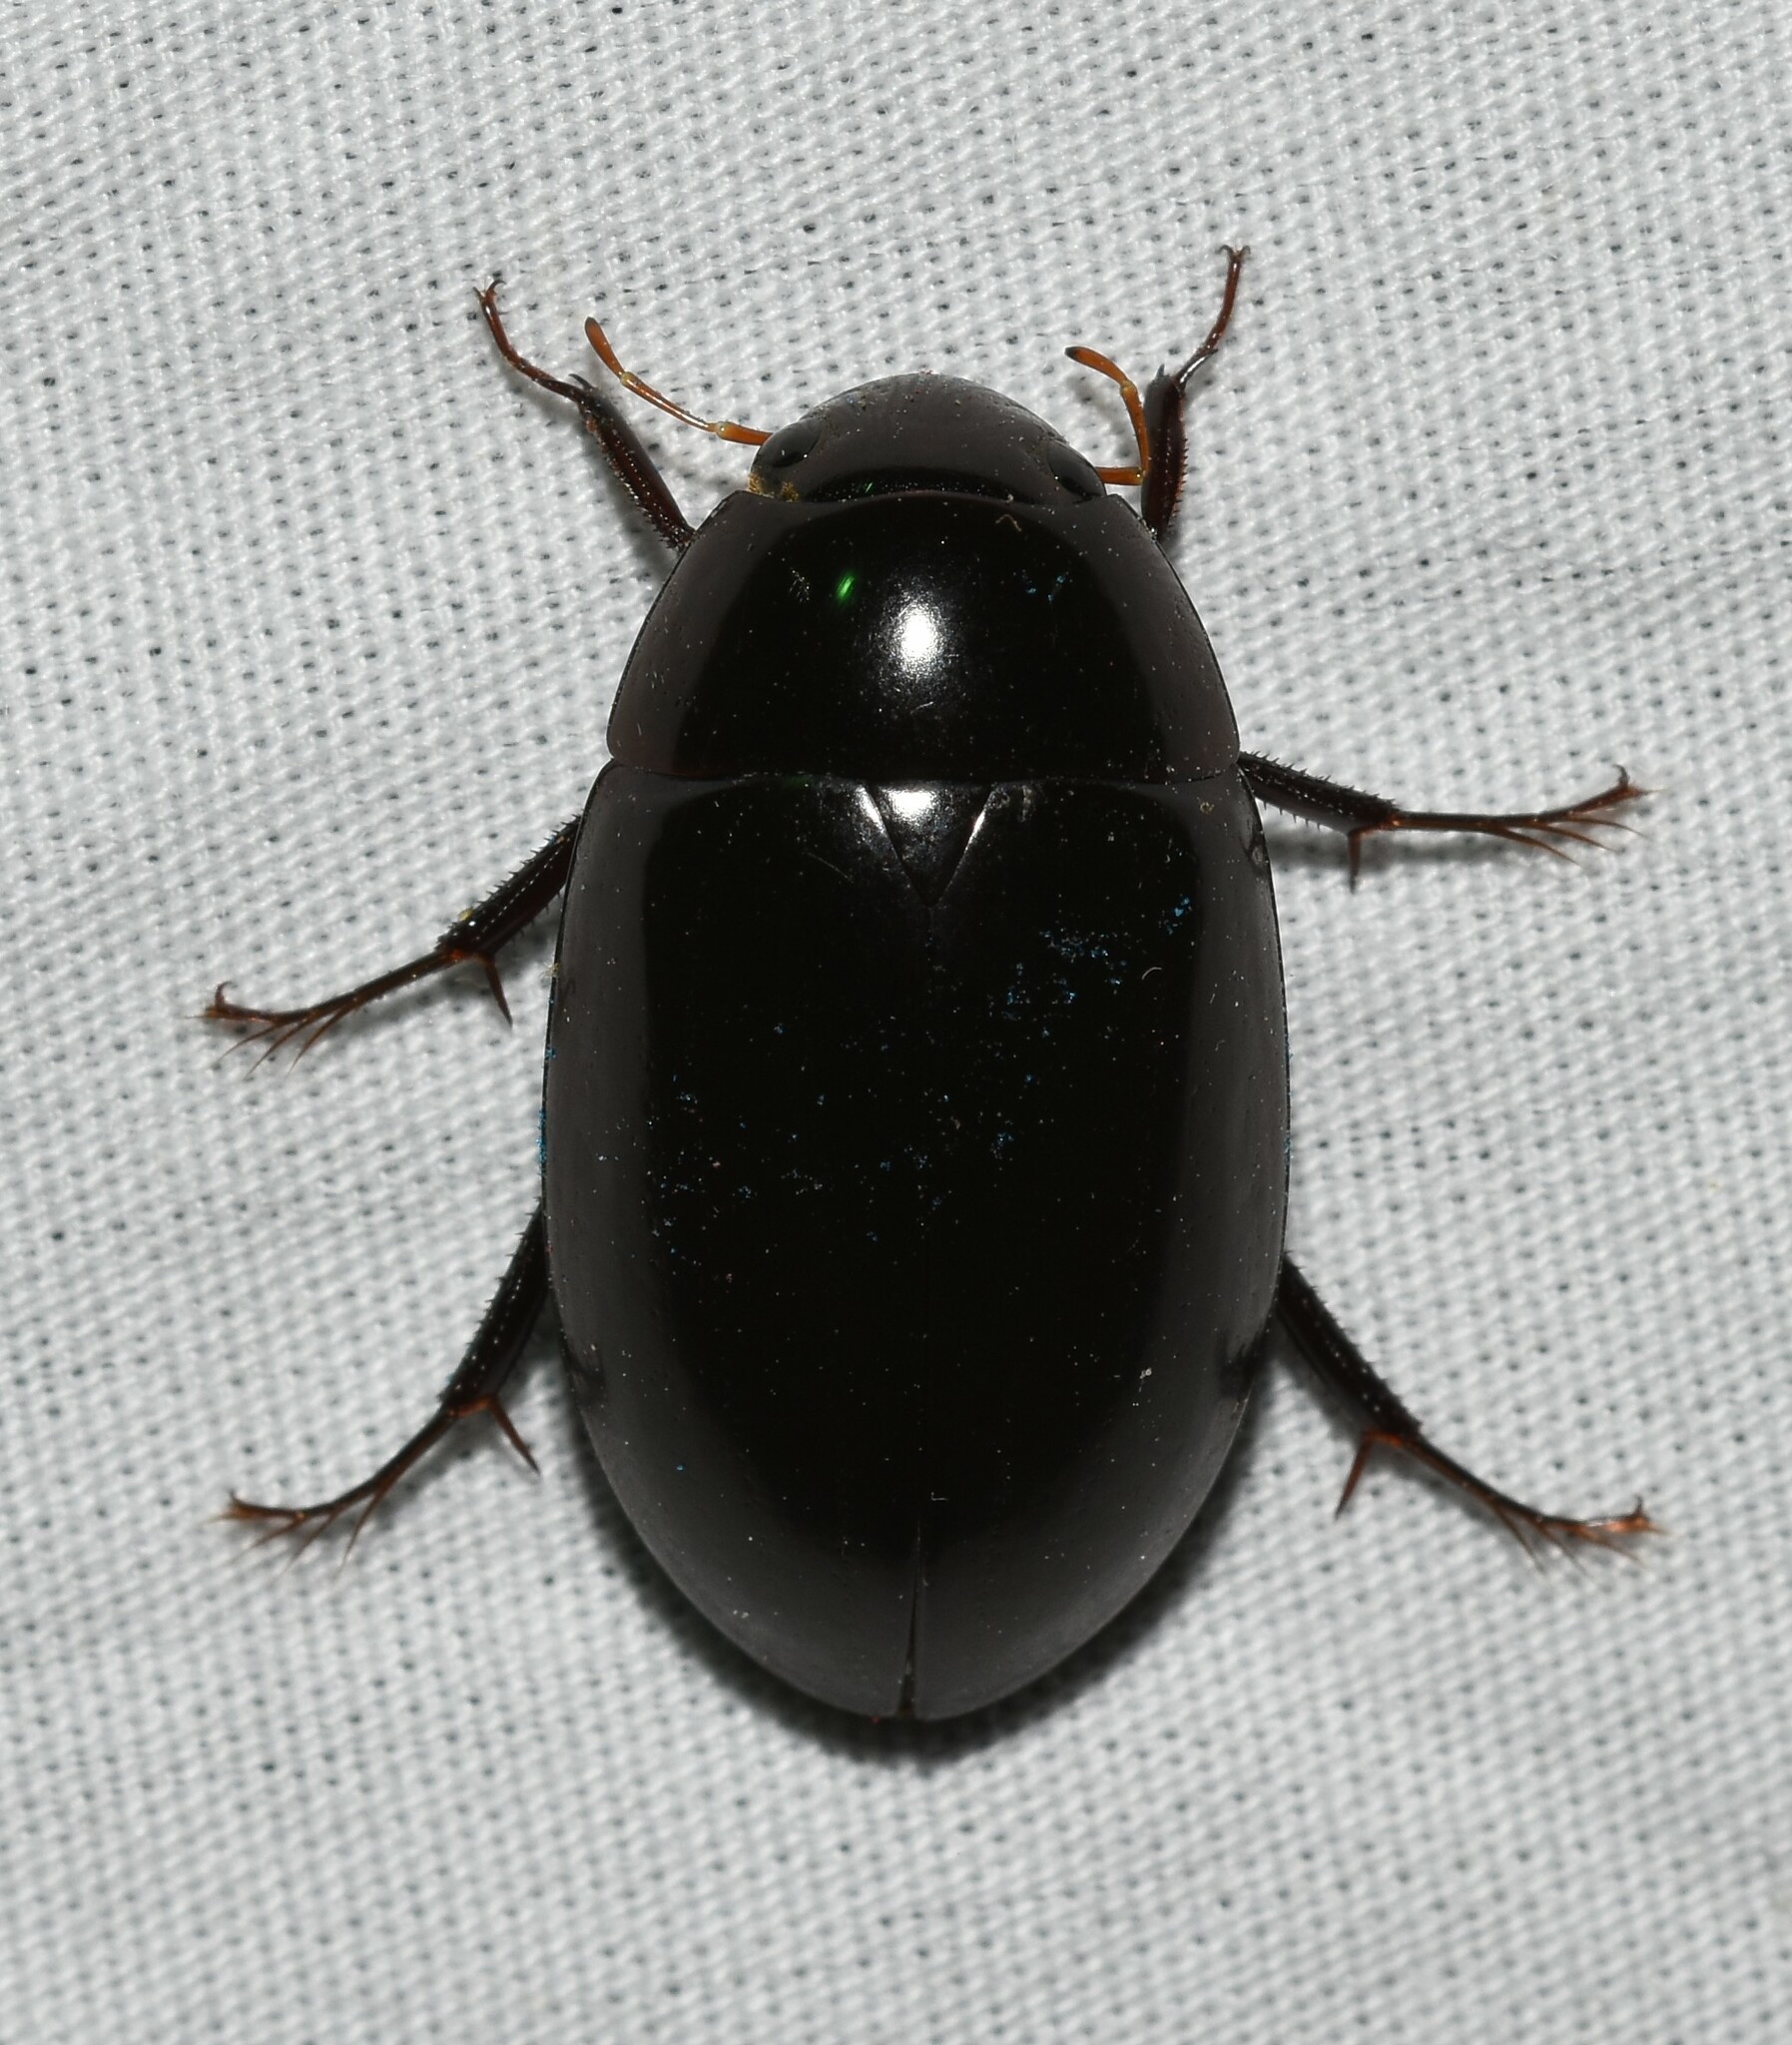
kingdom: Animalia
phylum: Arthropoda
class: Insecta
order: Coleoptera
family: Hydrophilidae
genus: Hydrochara
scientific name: Hydrochara
